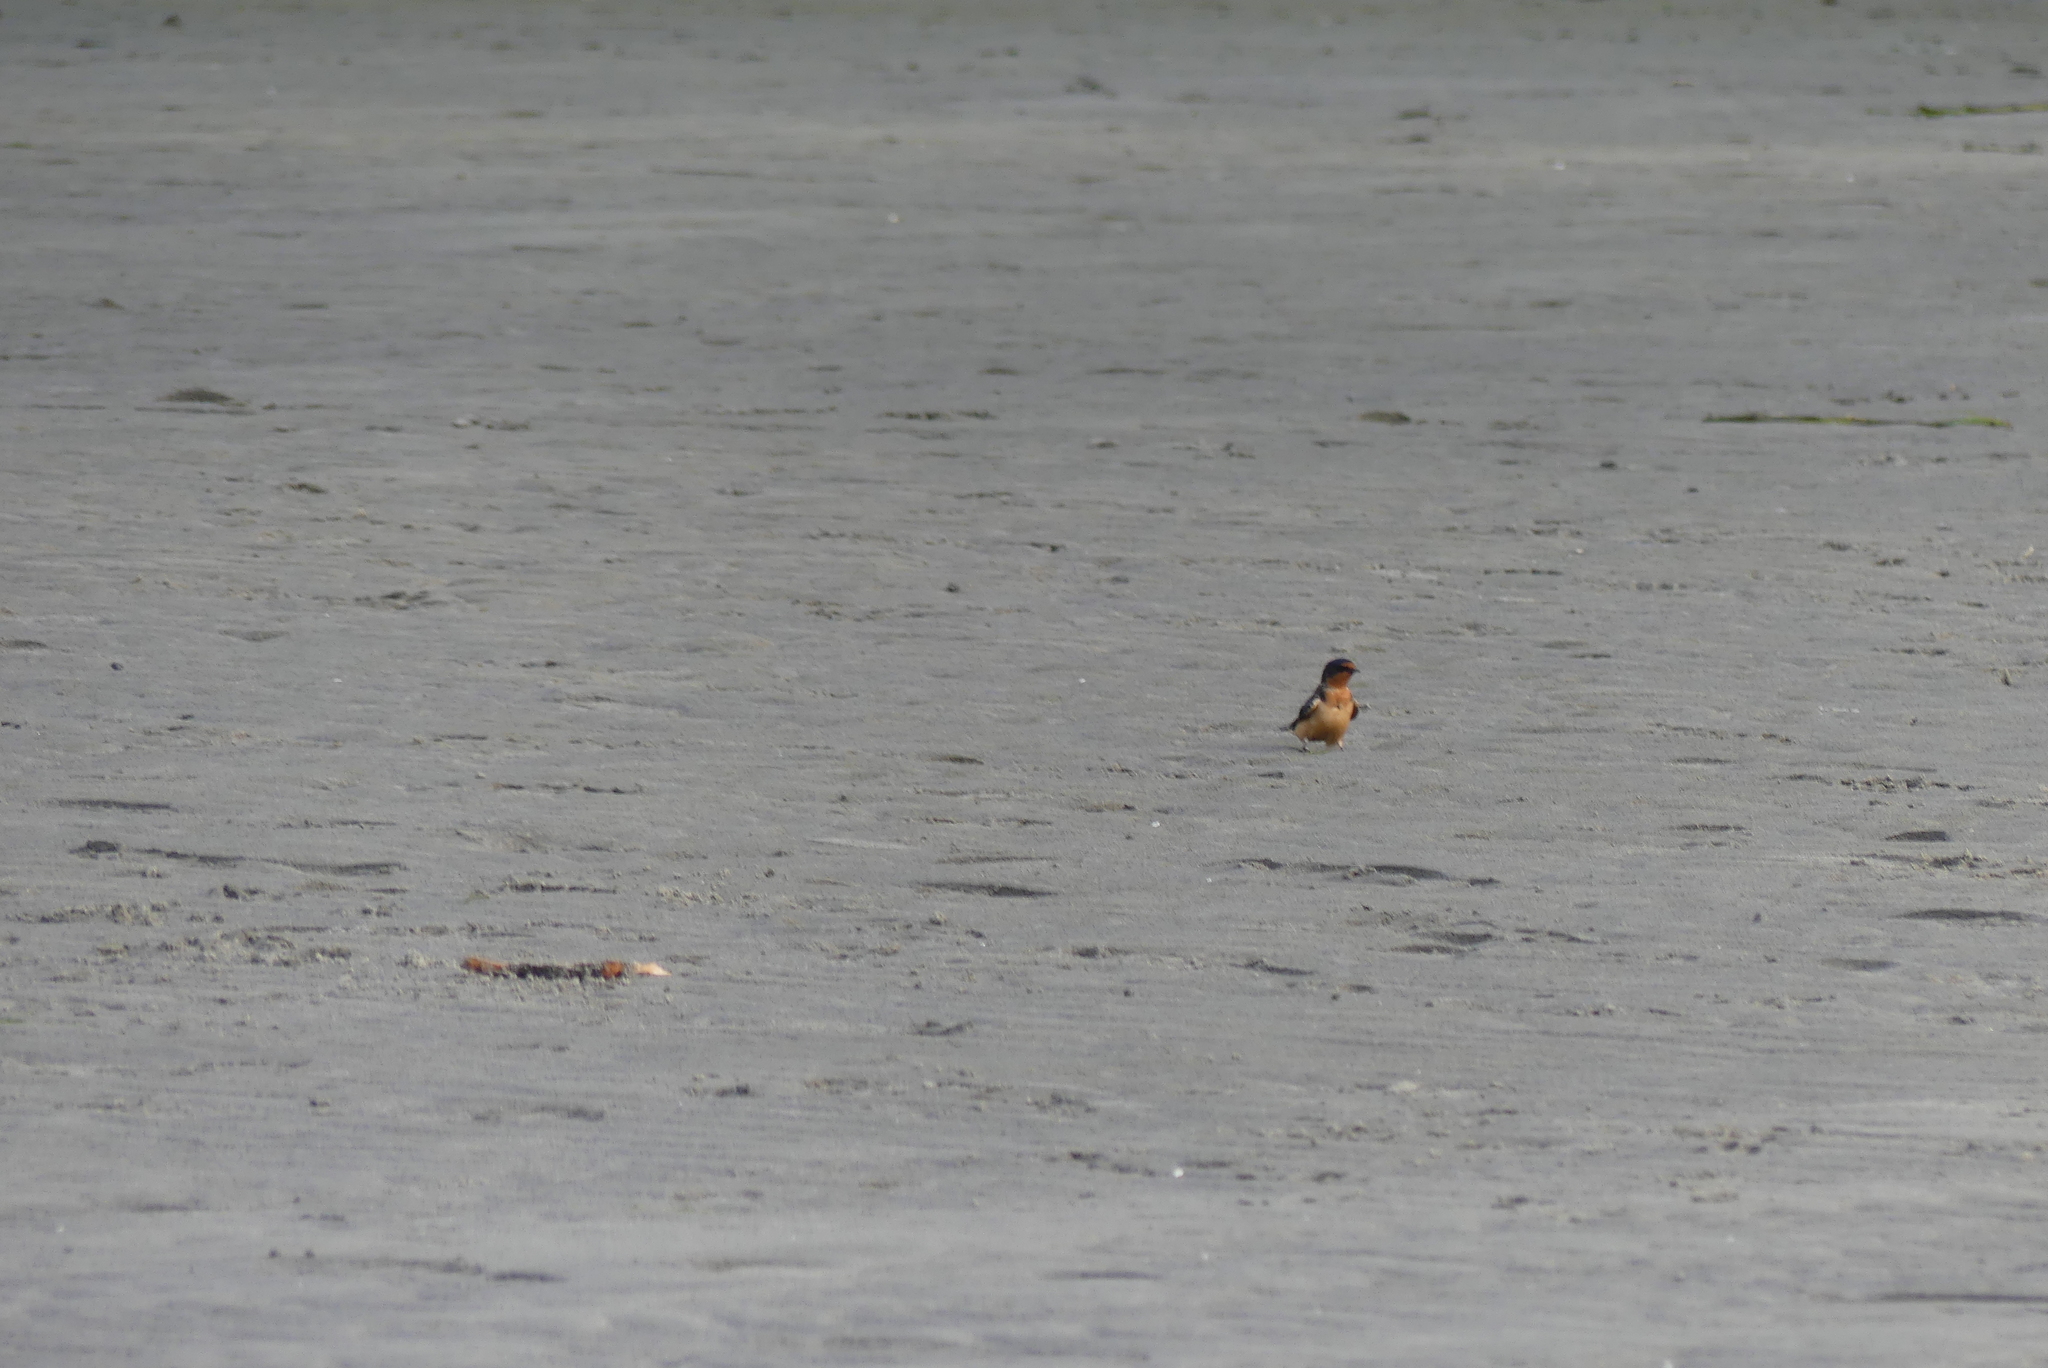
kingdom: Animalia
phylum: Chordata
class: Aves
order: Passeriformes
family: Hirundinidae
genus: Hirundo
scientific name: Hirundo rustica
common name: Barn swallow
